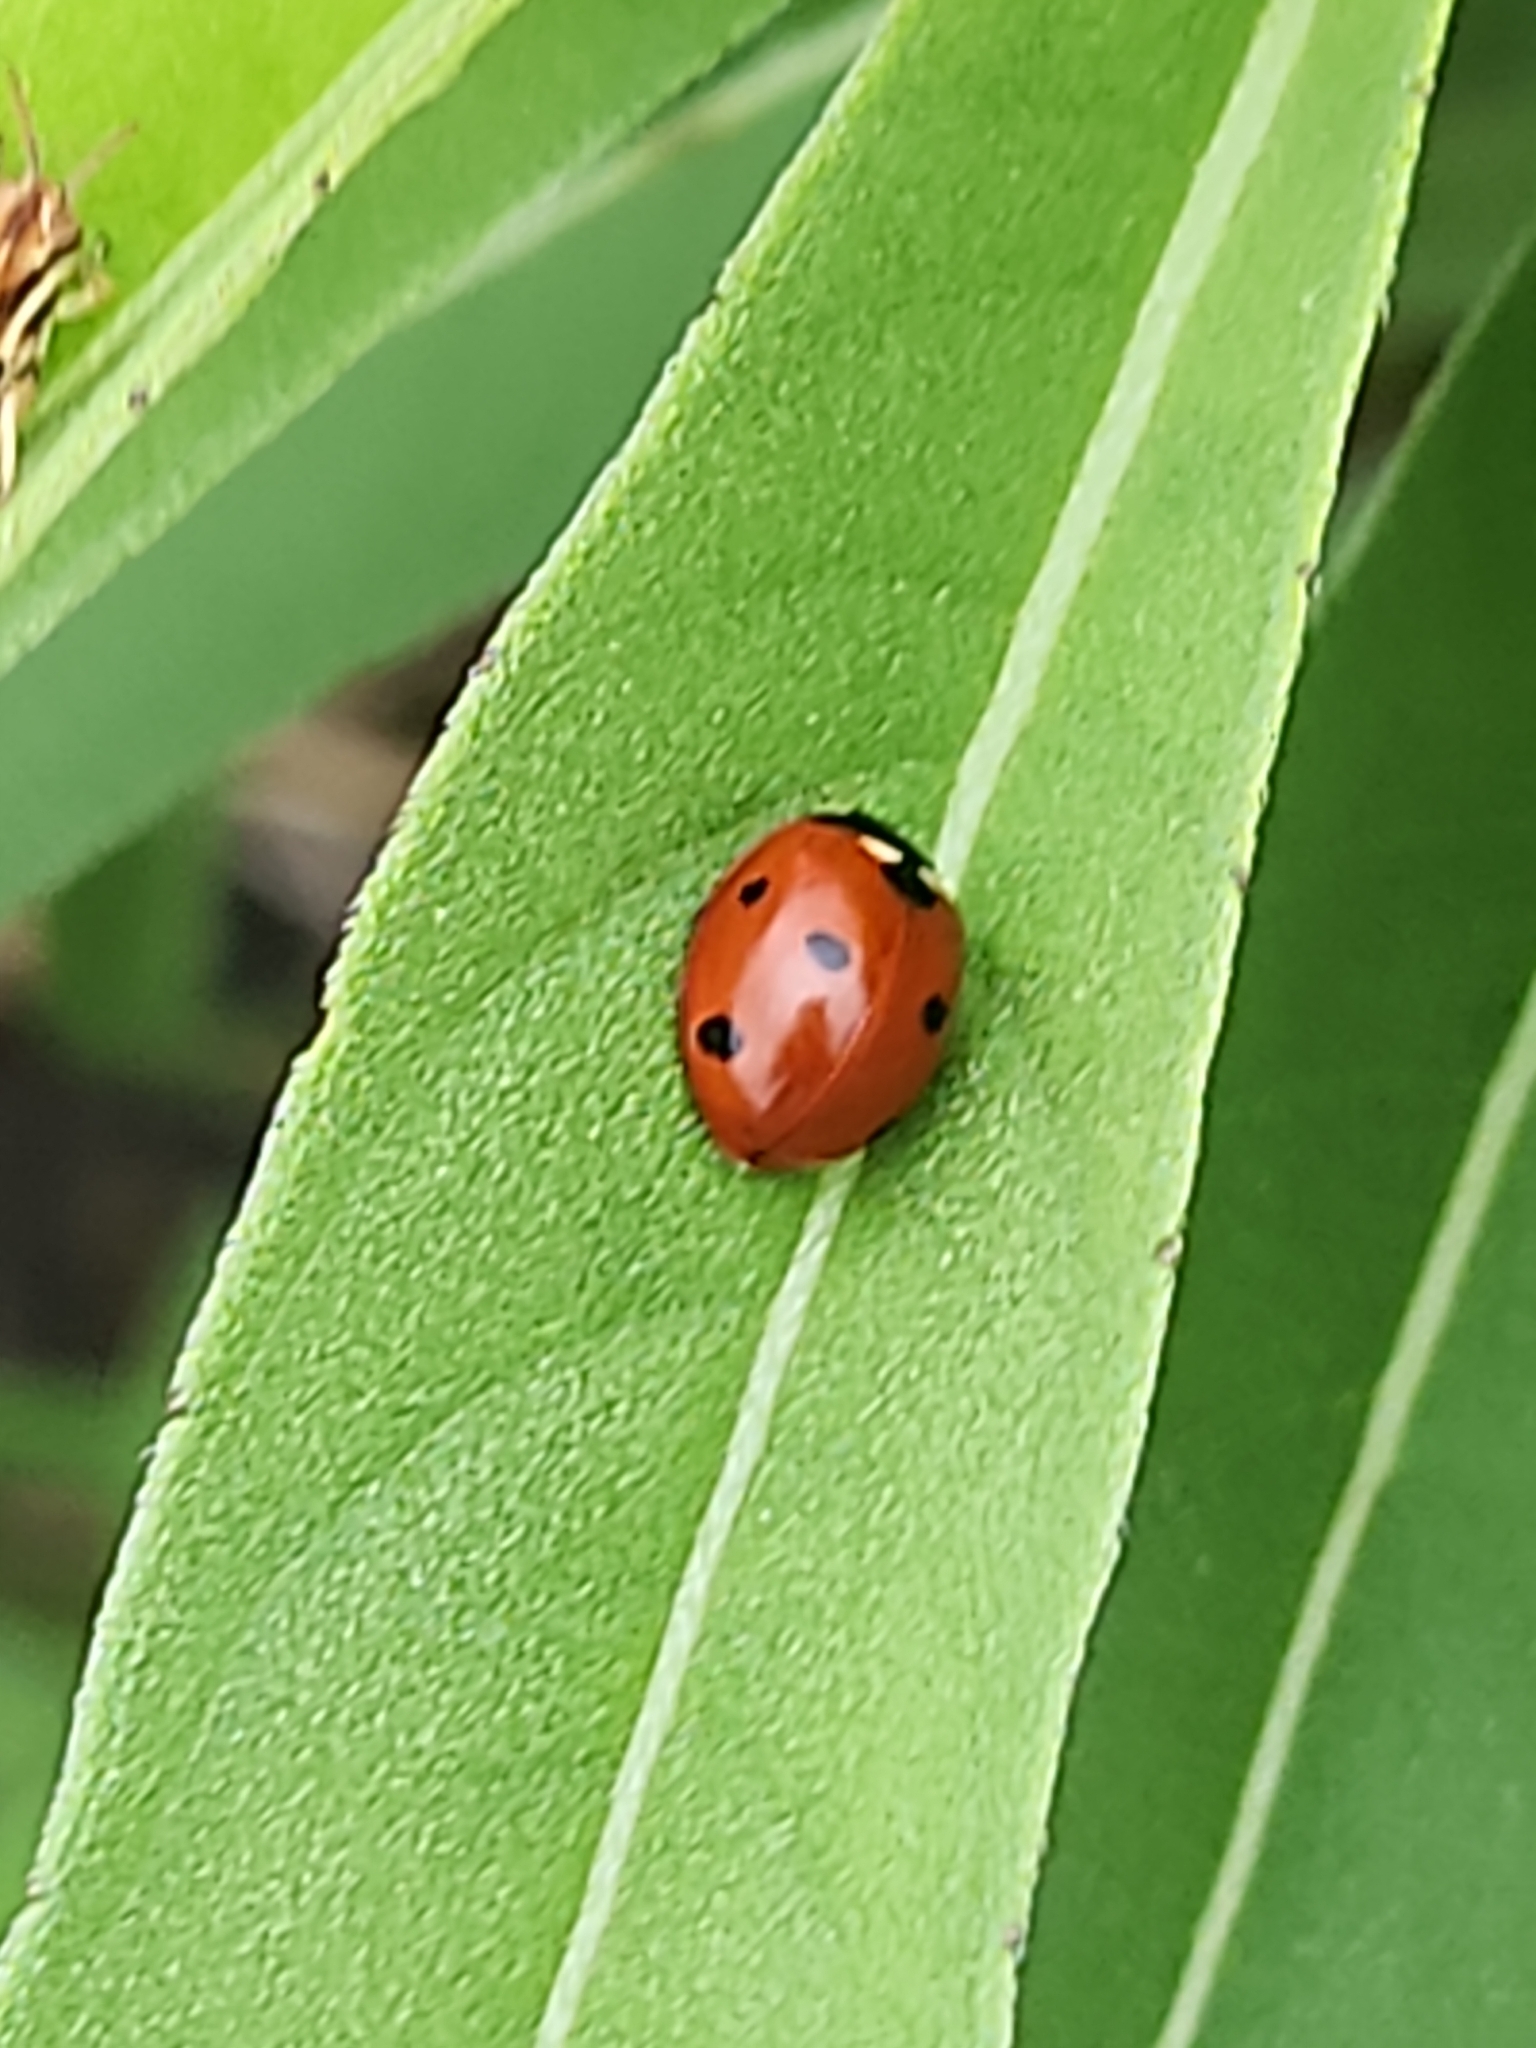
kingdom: Animalia
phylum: Arthropoda
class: Insecta
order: Coleoptera
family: Coccinellidae
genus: Coccinella
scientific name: Coccinella septempunctata
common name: Sevenspotted lady beetle
